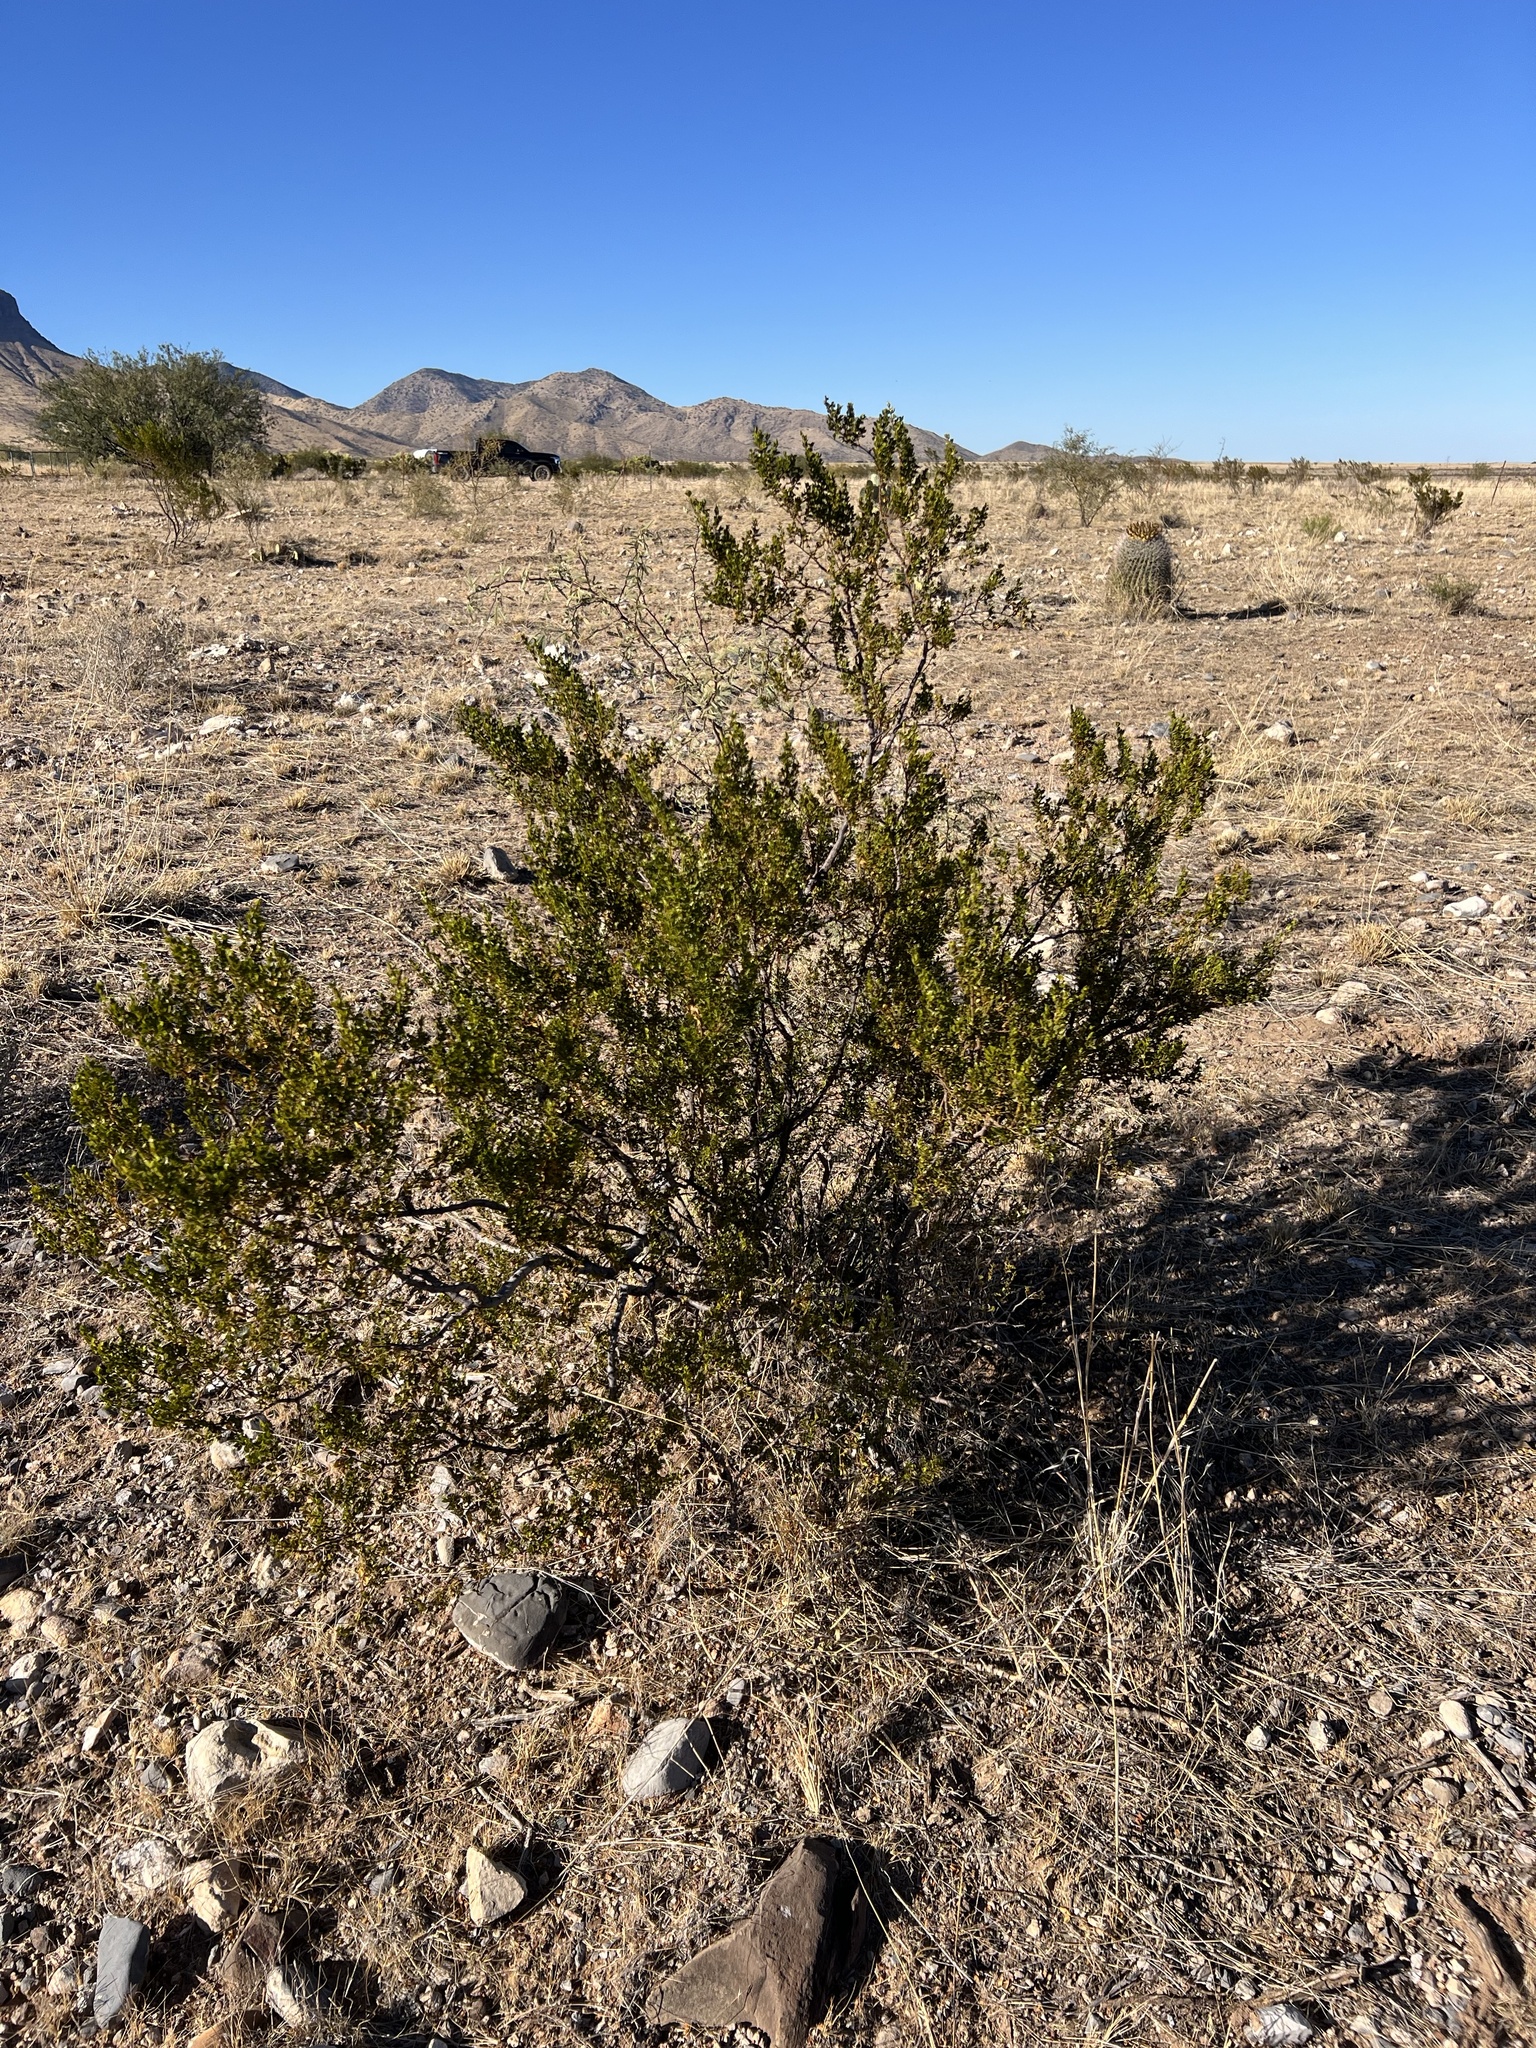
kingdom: Plantae
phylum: Tracheophyta
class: Magnoliopsida
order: Zygophyllales
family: Zygophyllaceae
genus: Larrea
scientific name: Larrea tridentata
